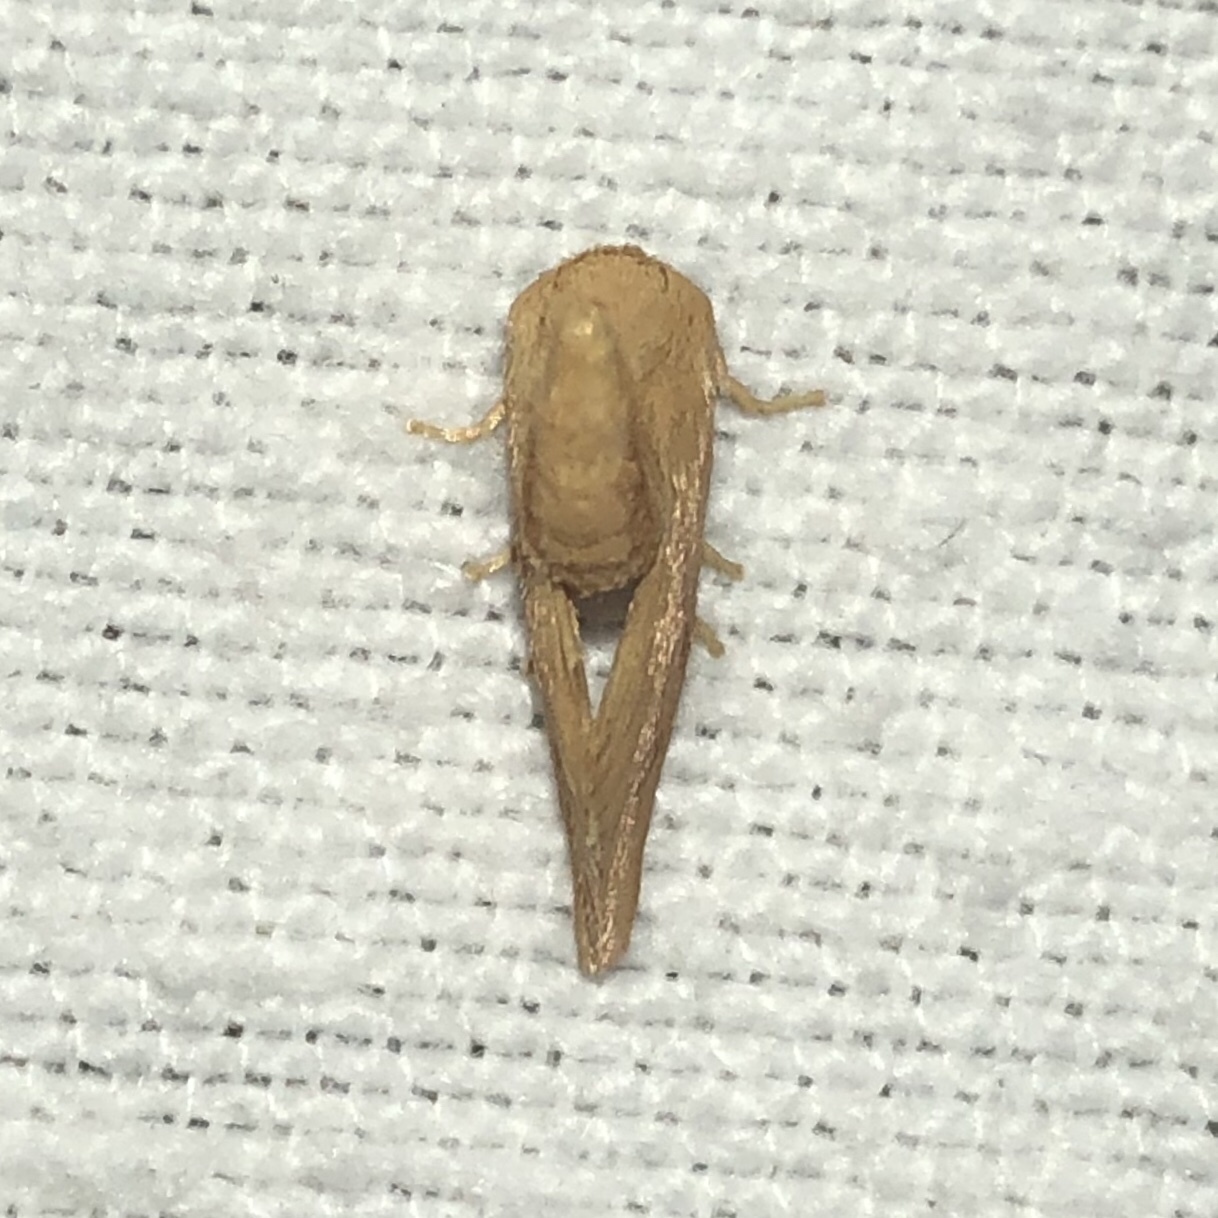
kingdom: Animalia
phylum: Arthropoda
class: Insecta
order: Lepidoptera
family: Limacodidae
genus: Tortricidia
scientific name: Tortricidia pallida
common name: Red-crossed button slug moth
